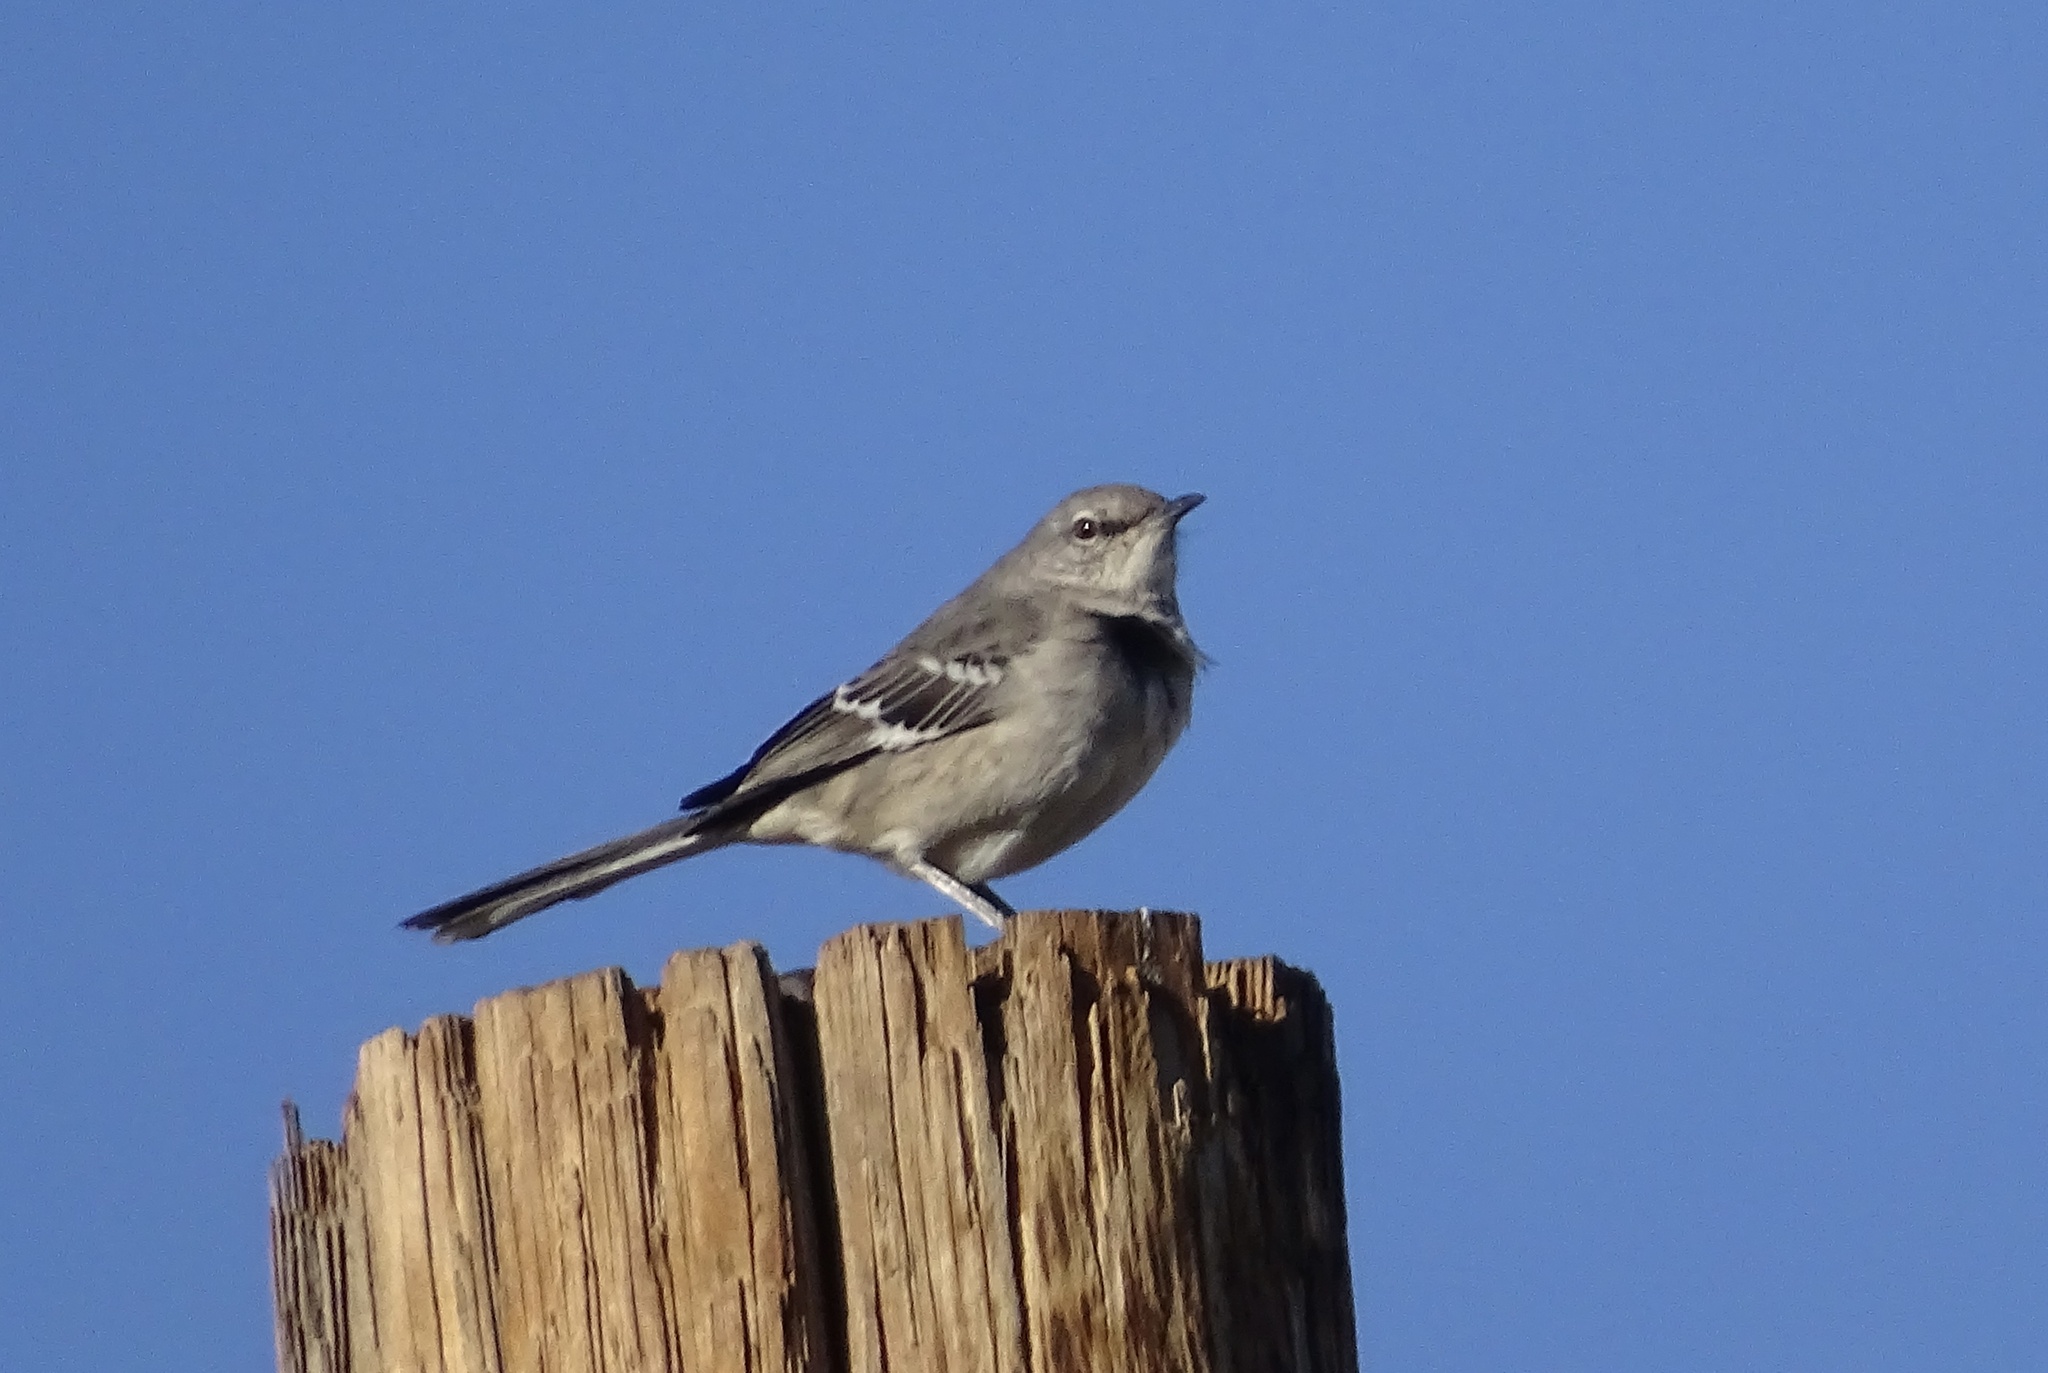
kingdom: Animalia
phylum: Chordata
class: Aves
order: Passeriformes
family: Mimidae
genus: Mimus
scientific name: Mimus polyglottos
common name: Northern mockingbird
